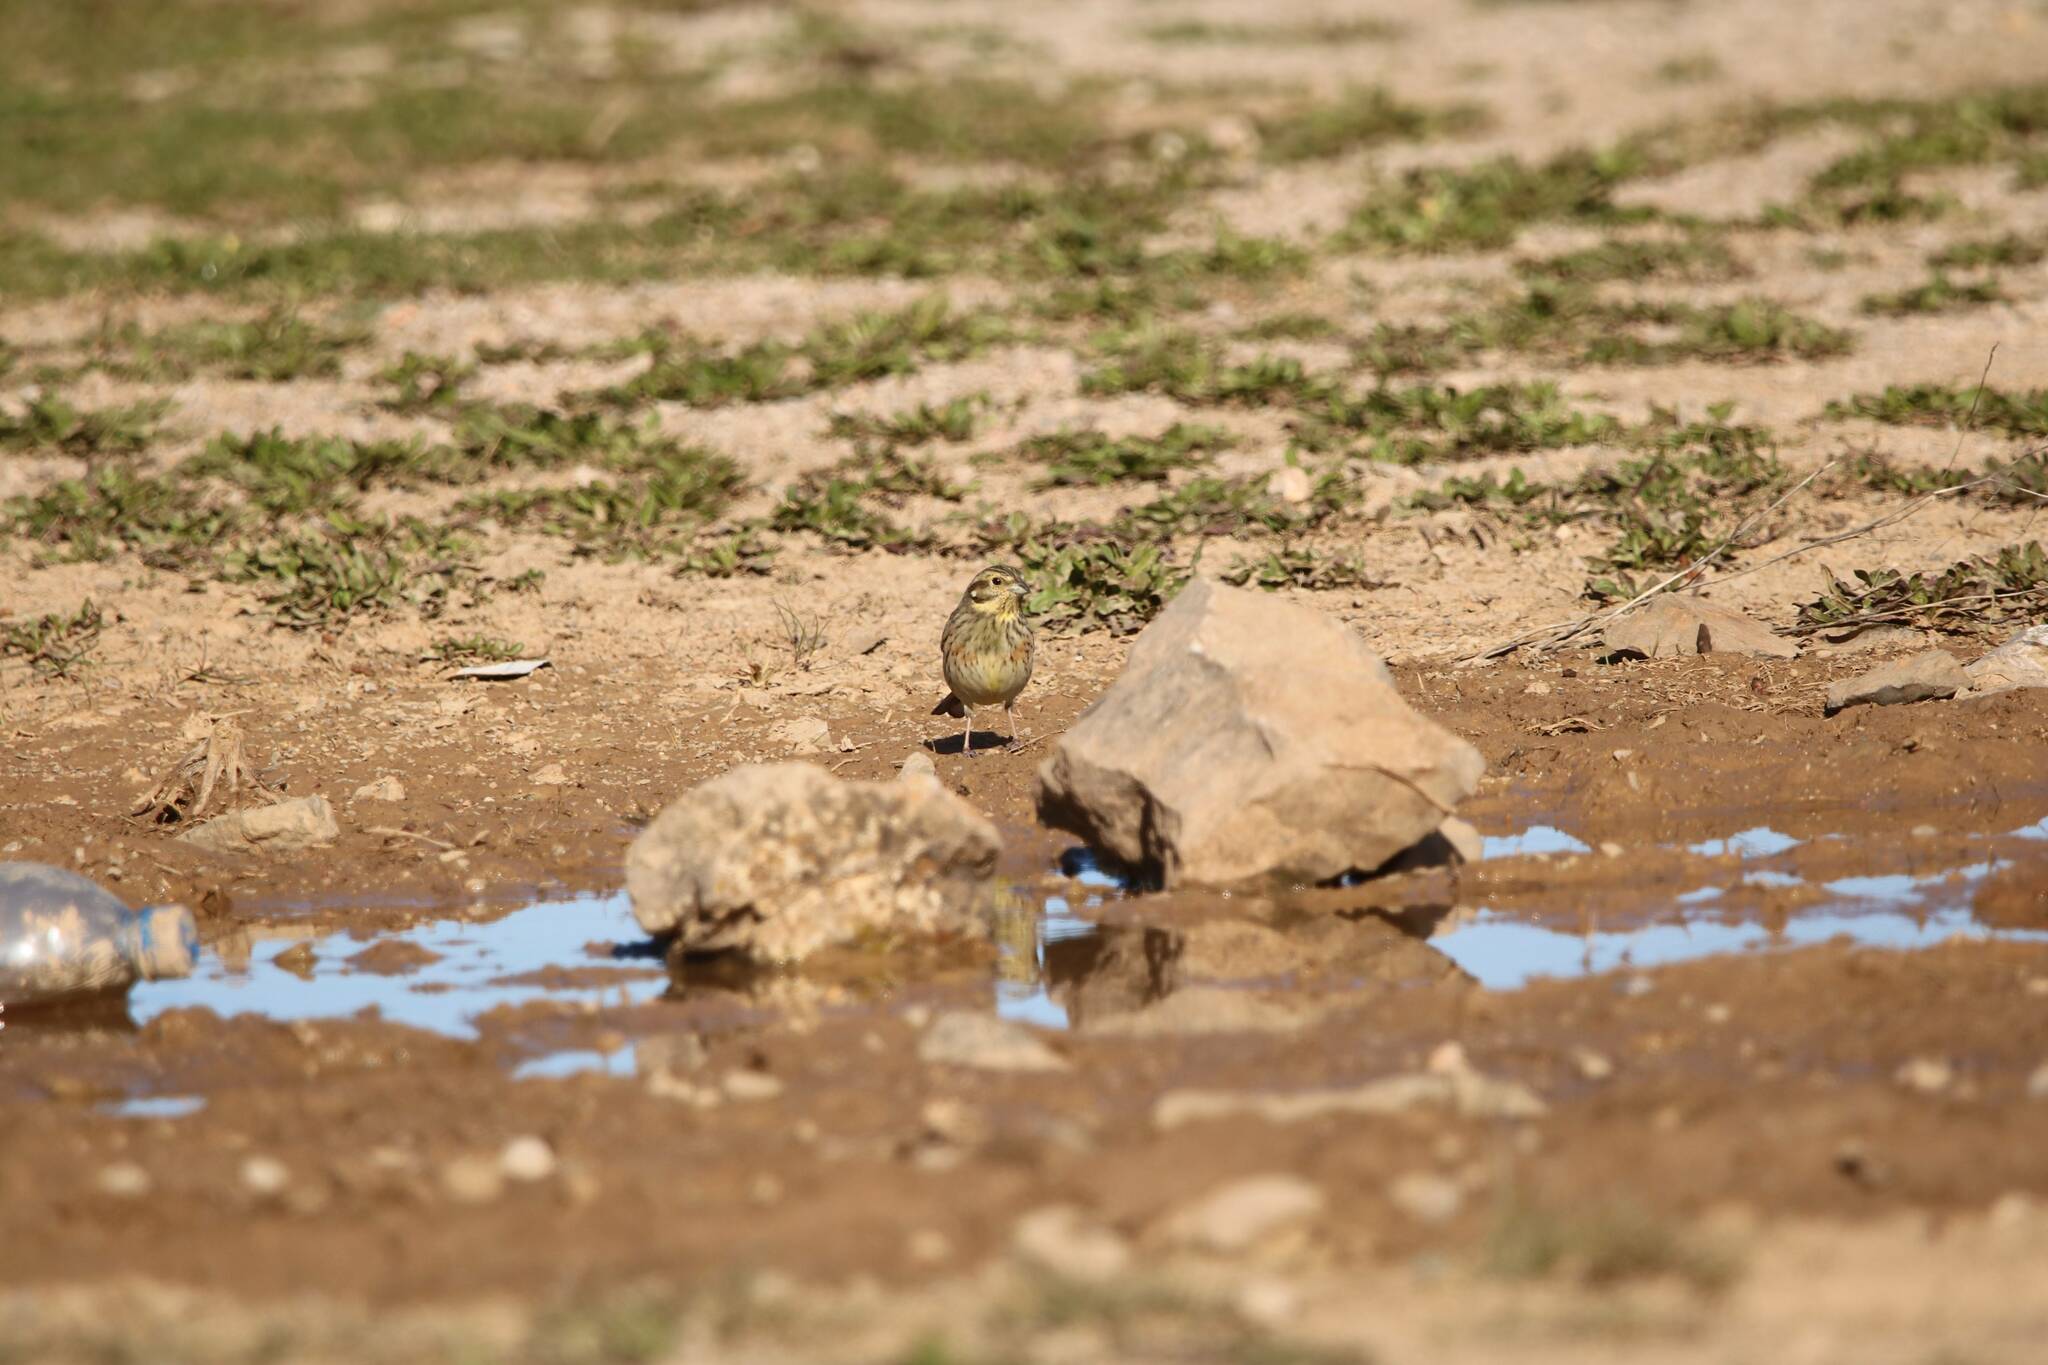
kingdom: Animalia
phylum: Chordata
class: Aves
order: Passeriformes
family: Emberizidae
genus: Emberiza
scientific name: Emberiza cirlus
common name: Cirl bunting
